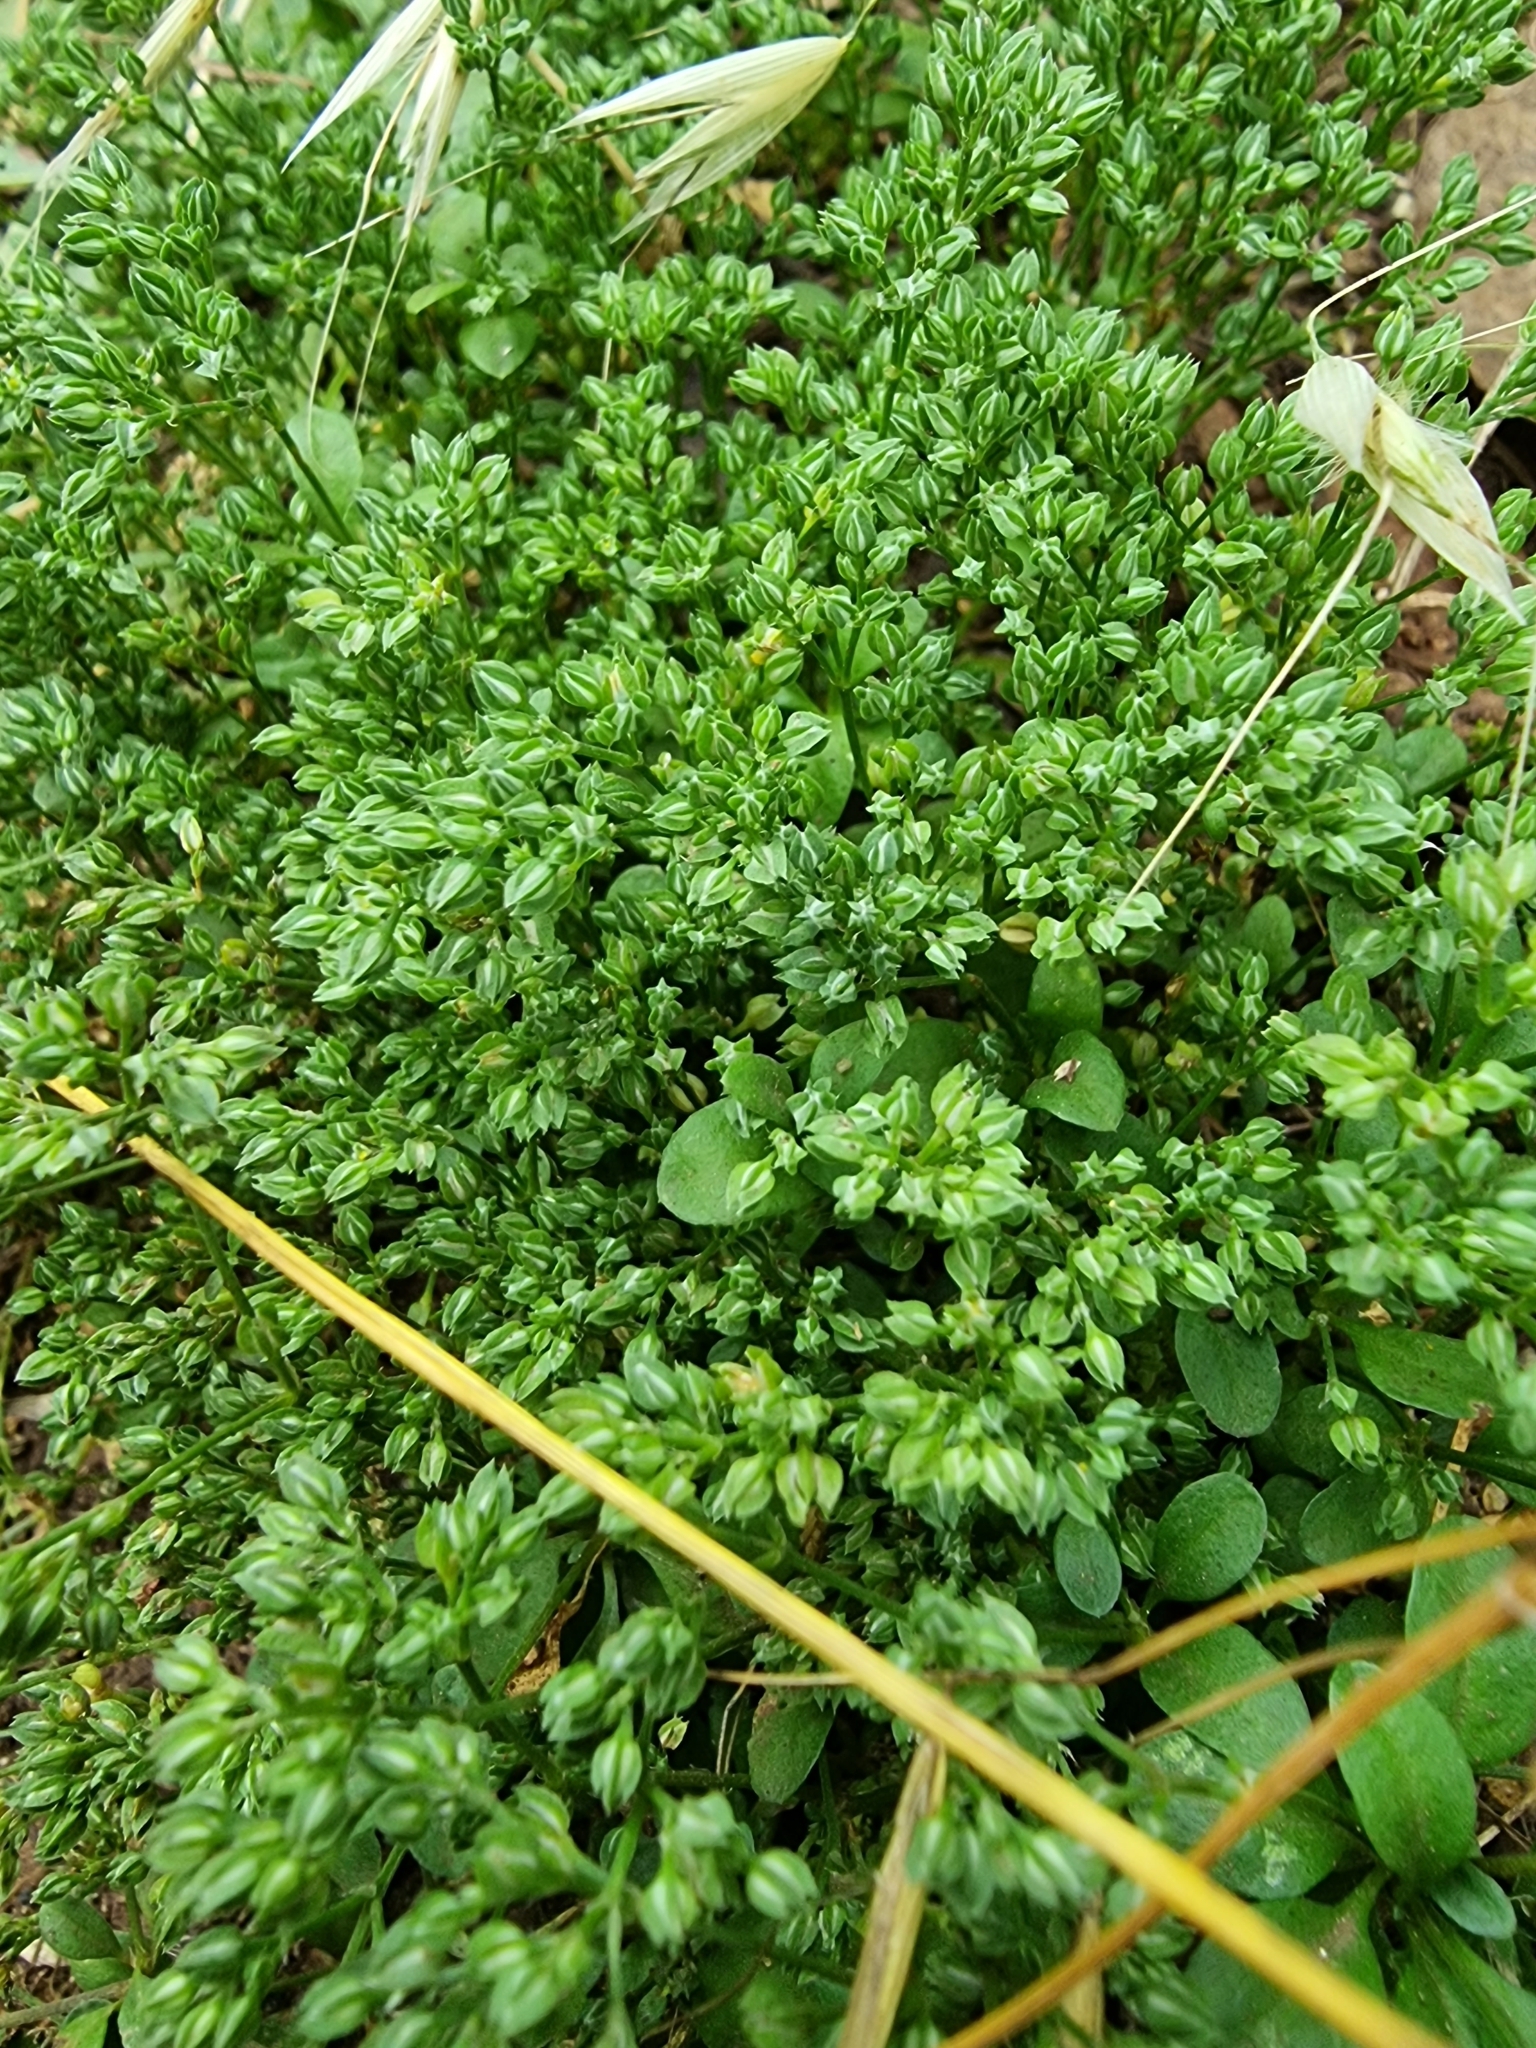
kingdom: Plantae
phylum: Tracheophyta
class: Magnoliopsida
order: Caryophyllales
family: Caryophyllaceae
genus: Polycarpon
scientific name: Polycarpon tetraphyllum
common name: Four-leaved all-seed
